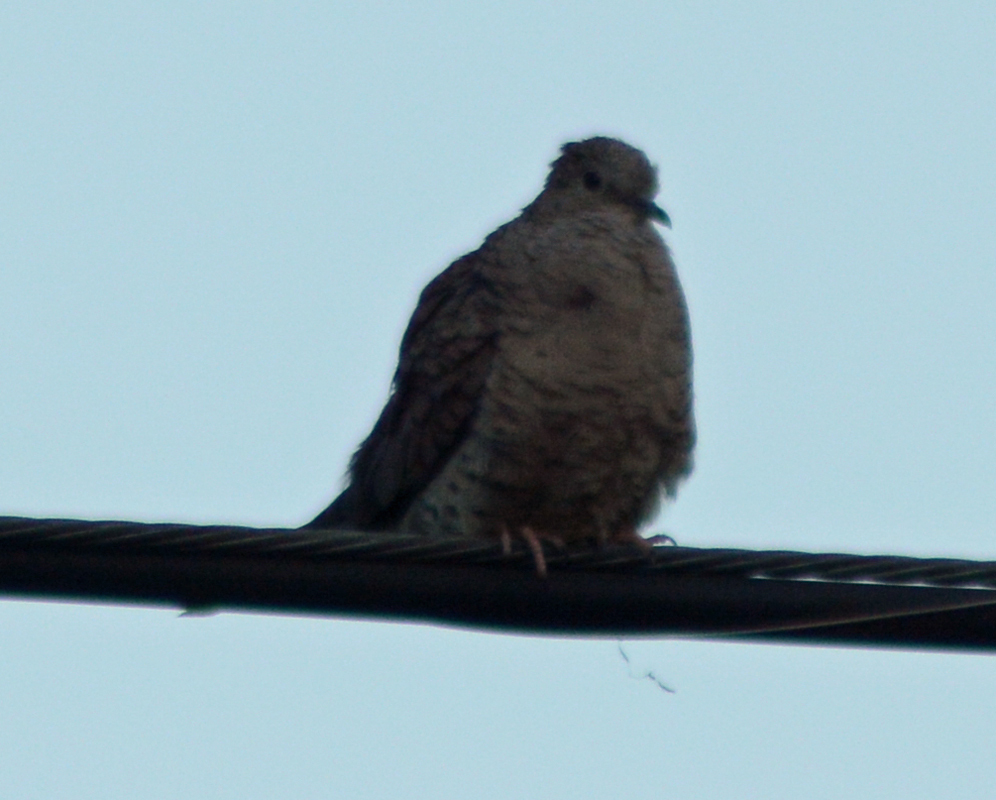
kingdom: Animalia
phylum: Chordata
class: Aves
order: Columbiformes
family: Columbidae
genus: Columbina
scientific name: Columbina inca
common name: Inca dove
